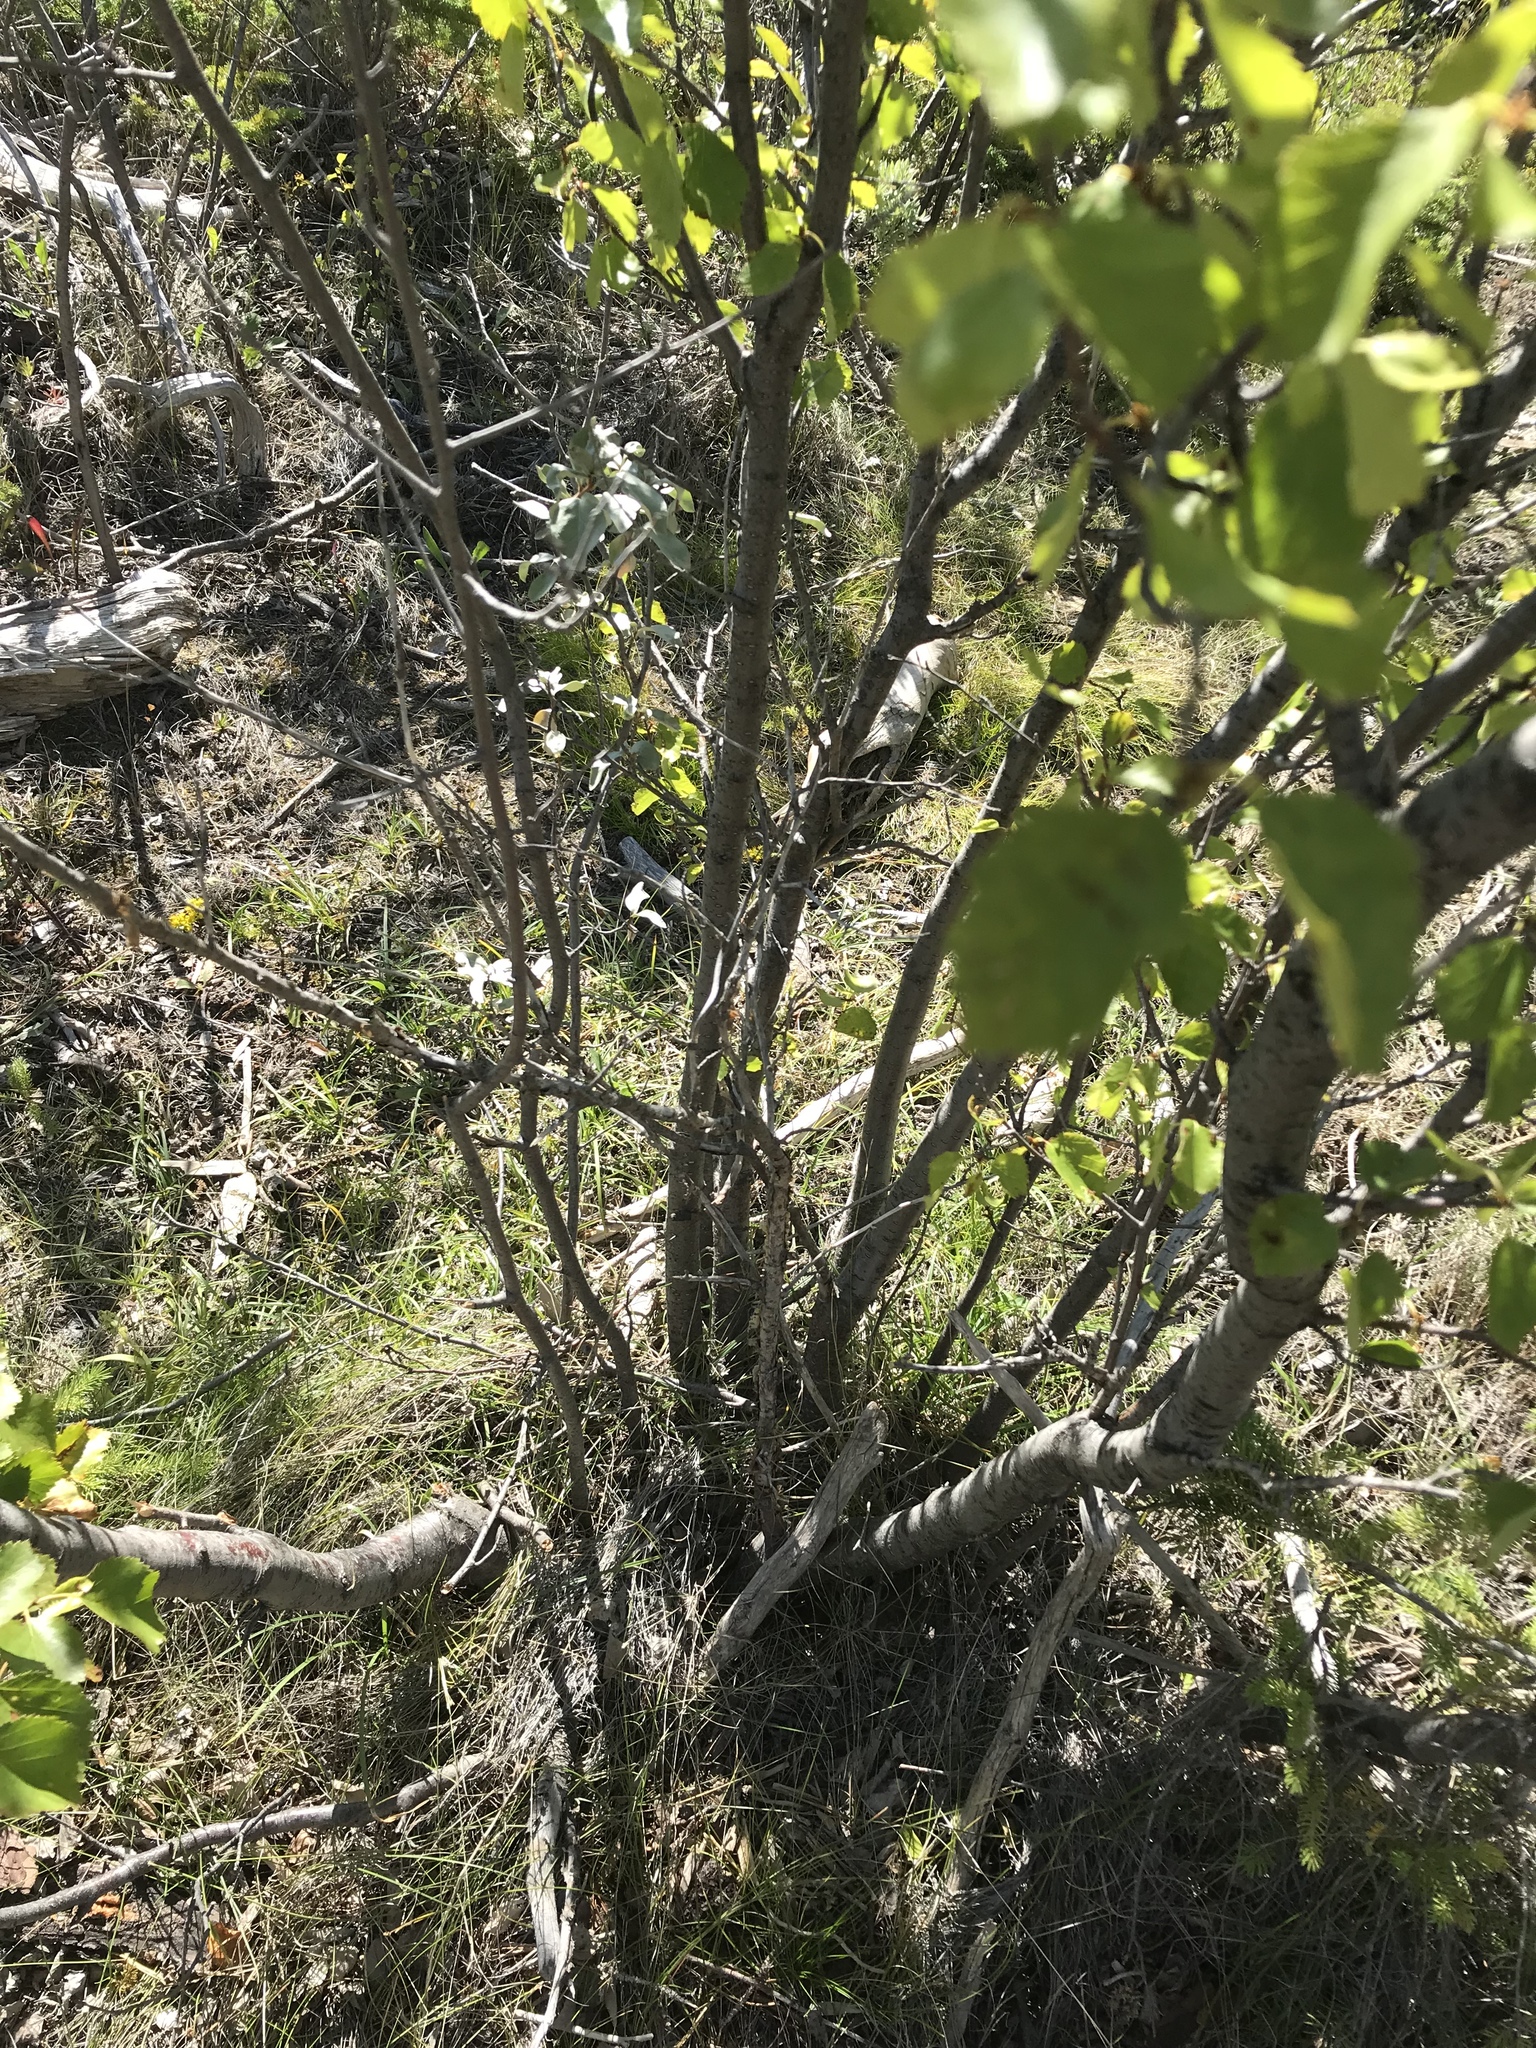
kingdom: Plantae
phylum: Tracheophyta
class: Magnoliopsida
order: Fagales
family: Betulaceae
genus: Betula
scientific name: Betula occidentalis
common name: River birch
